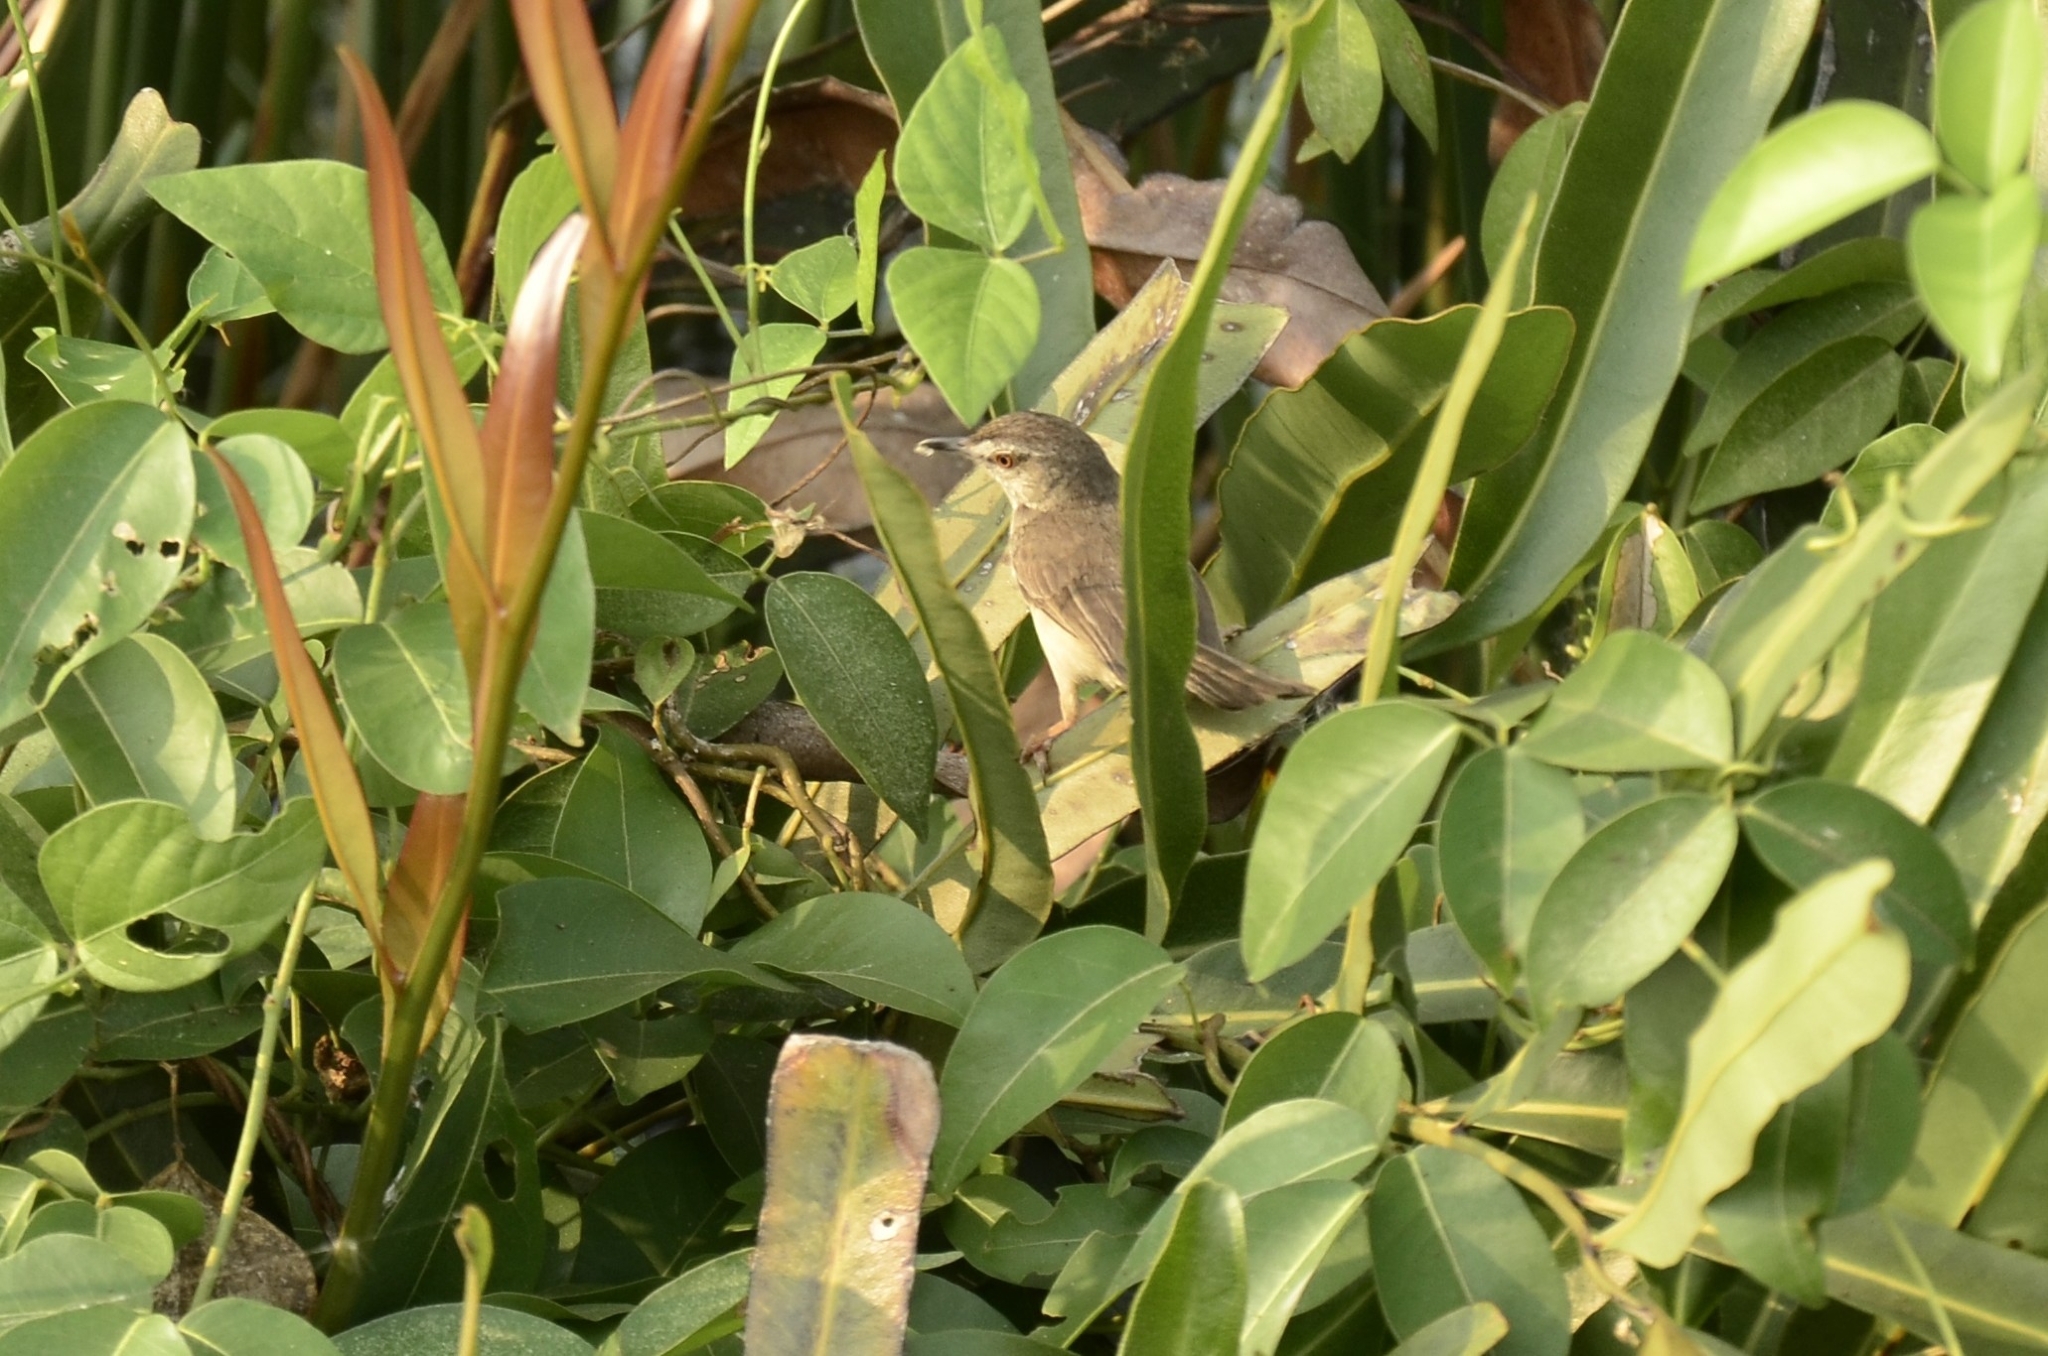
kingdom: Animalia
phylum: Chordata
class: Aves
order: Passeriformes
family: Cisticolidae
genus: Prinia
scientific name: Prinia inornata
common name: Plain prinia
